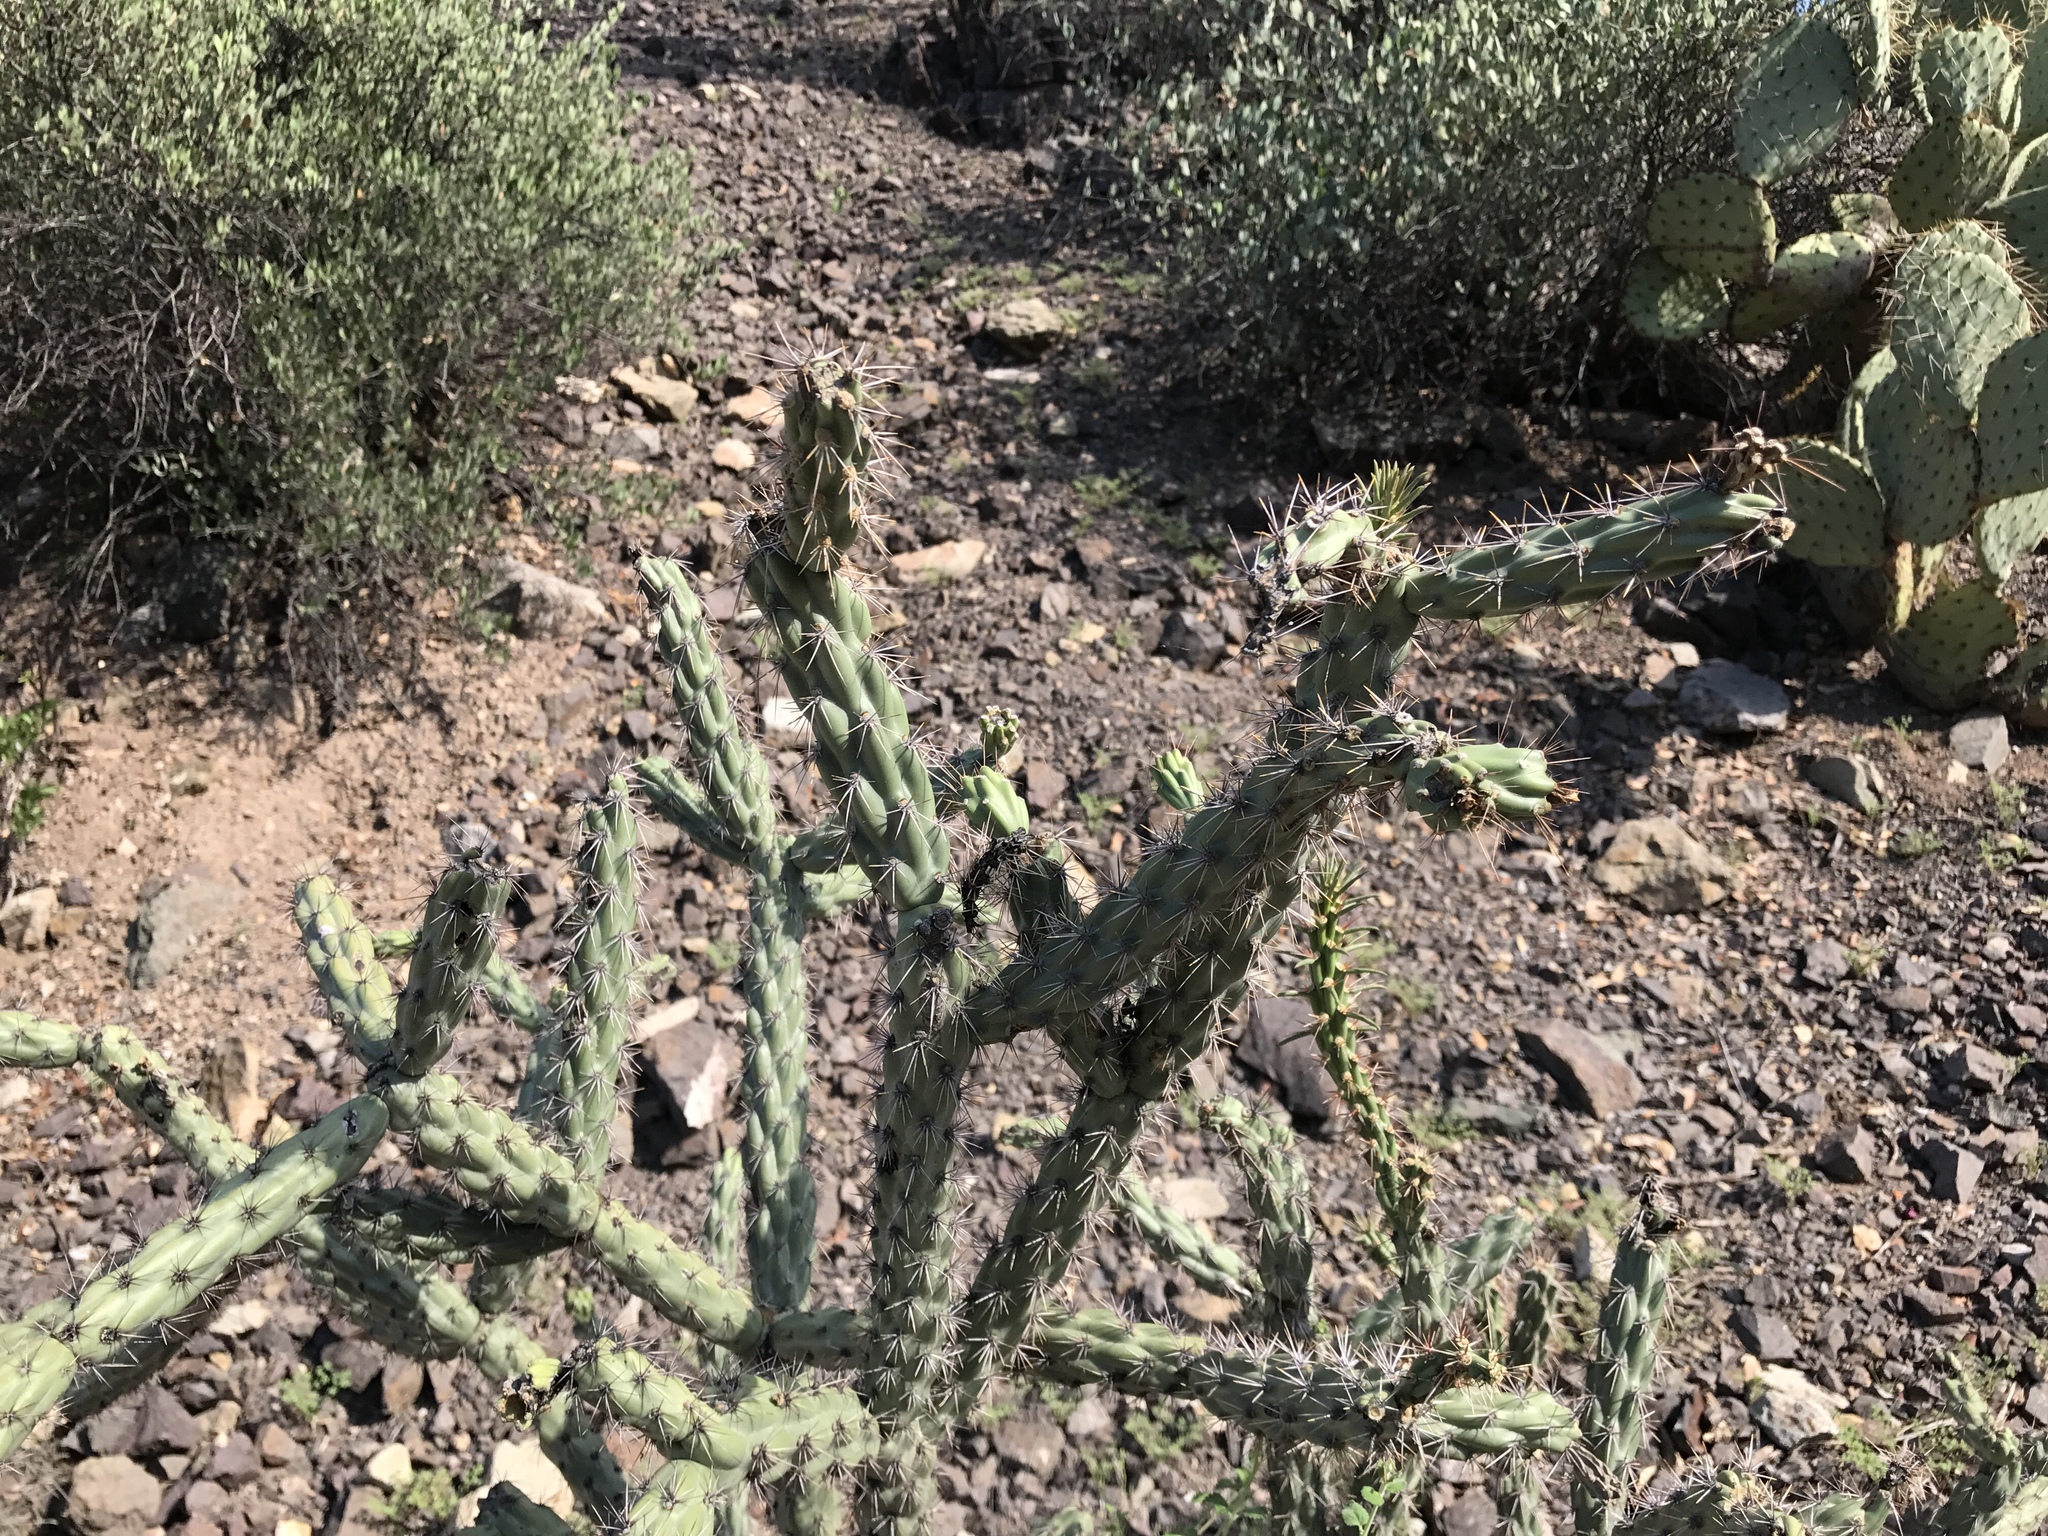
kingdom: Plantae
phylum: Tracheophyta
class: Magnoliopsida
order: Caryophyllales
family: Cactaceae
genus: Cylindropuntia
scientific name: Cylindropuntia acanthocarpa
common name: Buckhorn cholla
